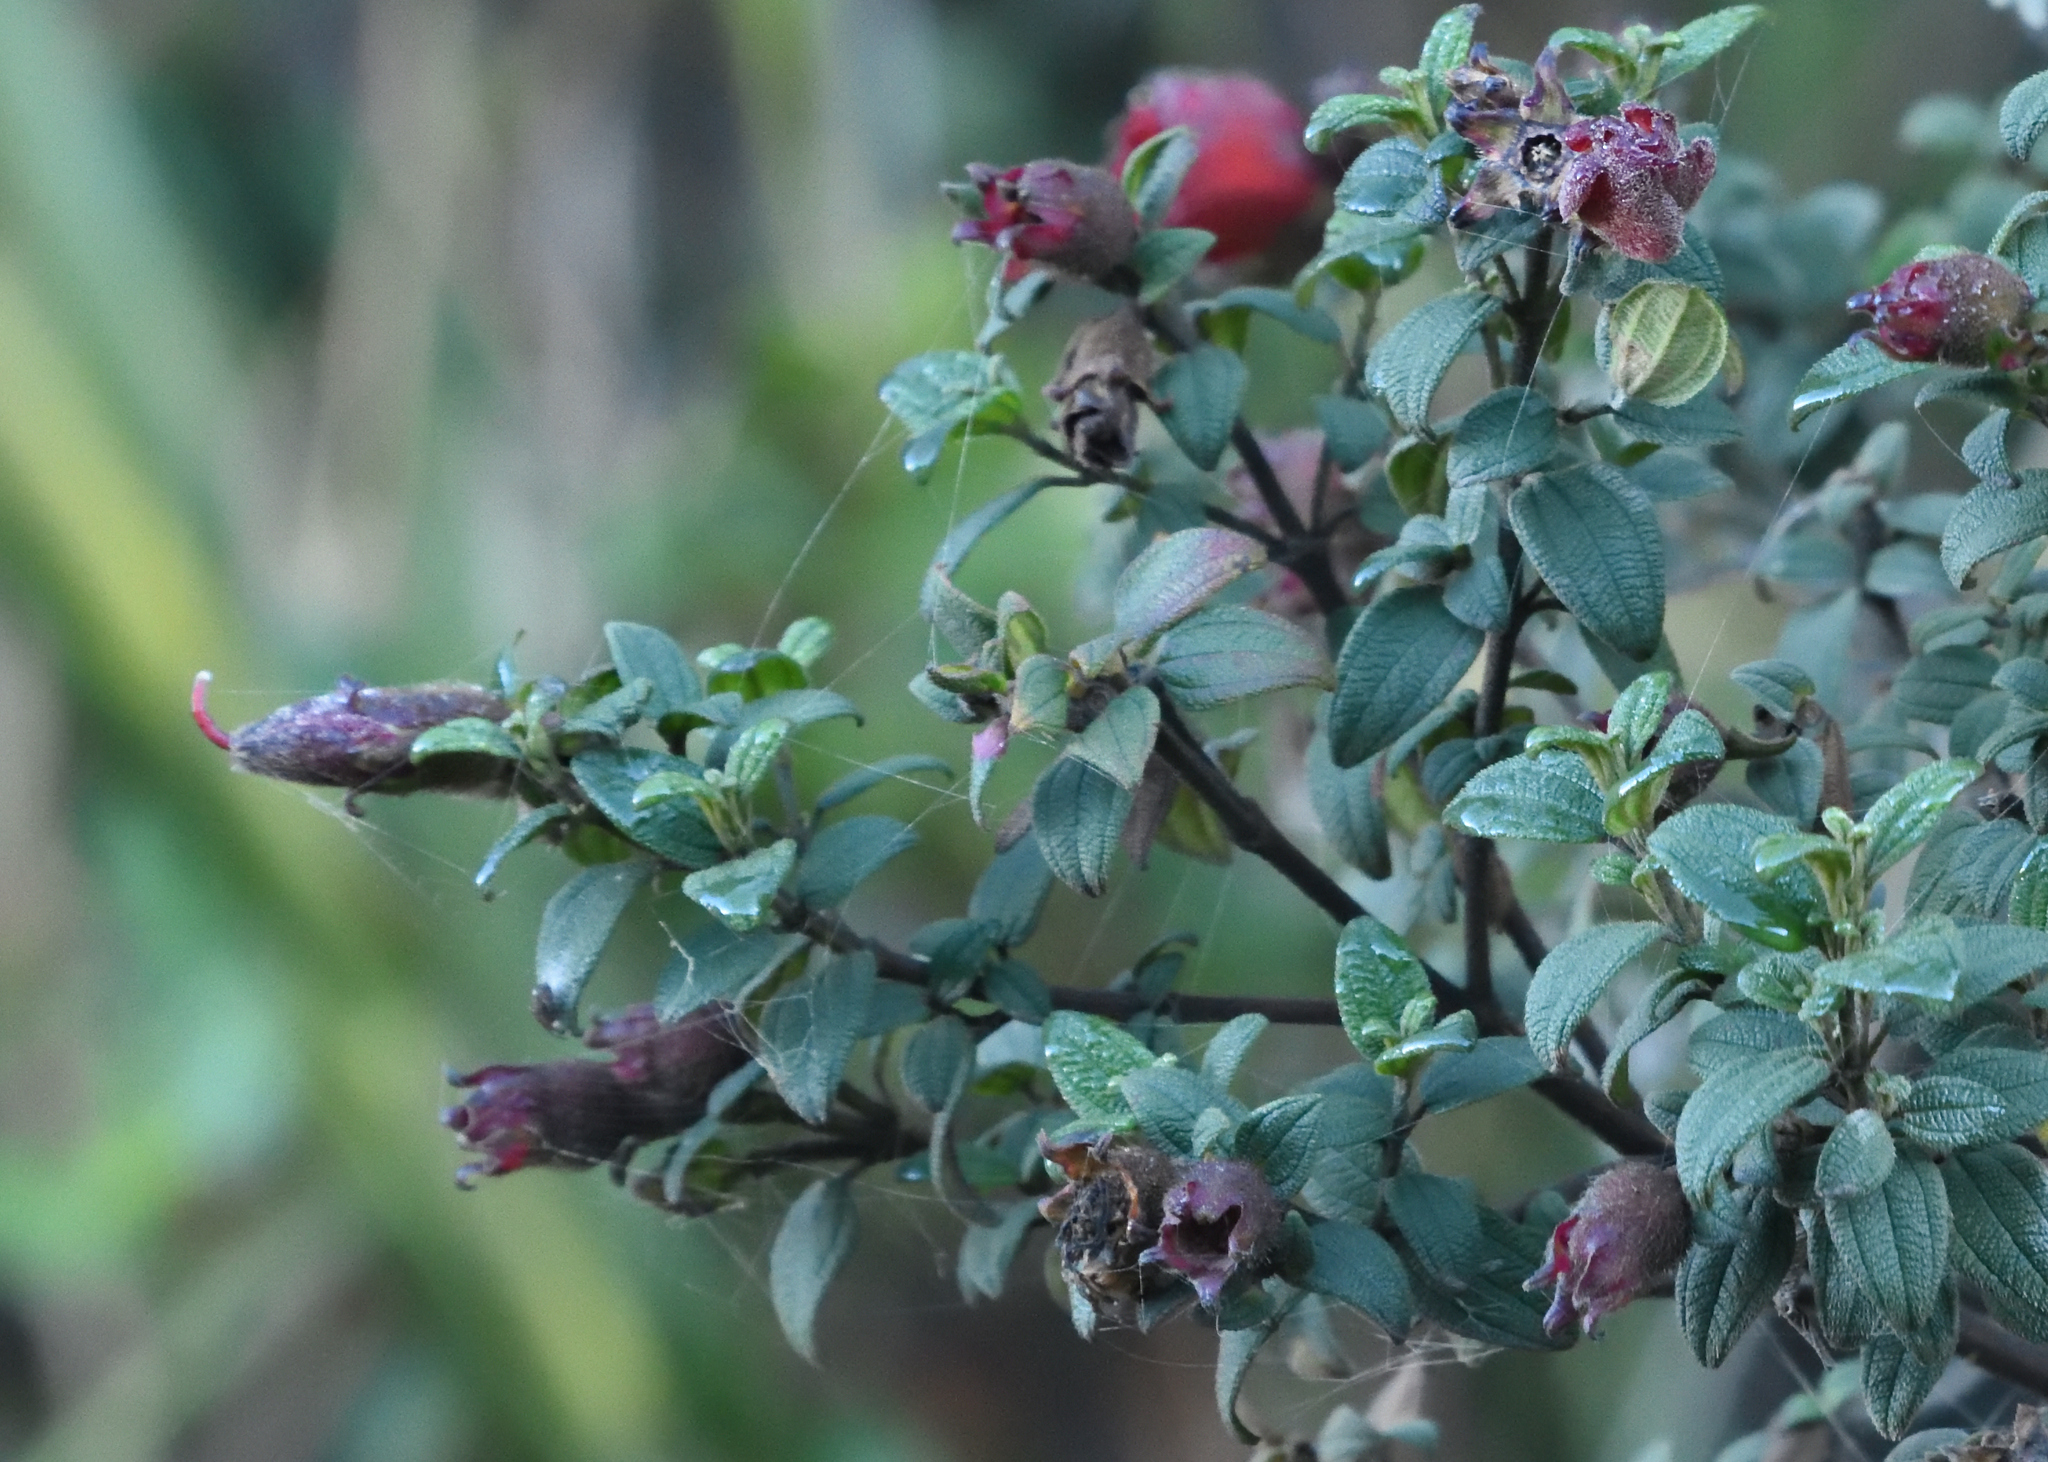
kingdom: Plantae
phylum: Tracheophyta
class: Magnoliopsida
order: Myrtales
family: Melastomataceae
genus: Chaetogastra
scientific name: Chaetogastra grossa
